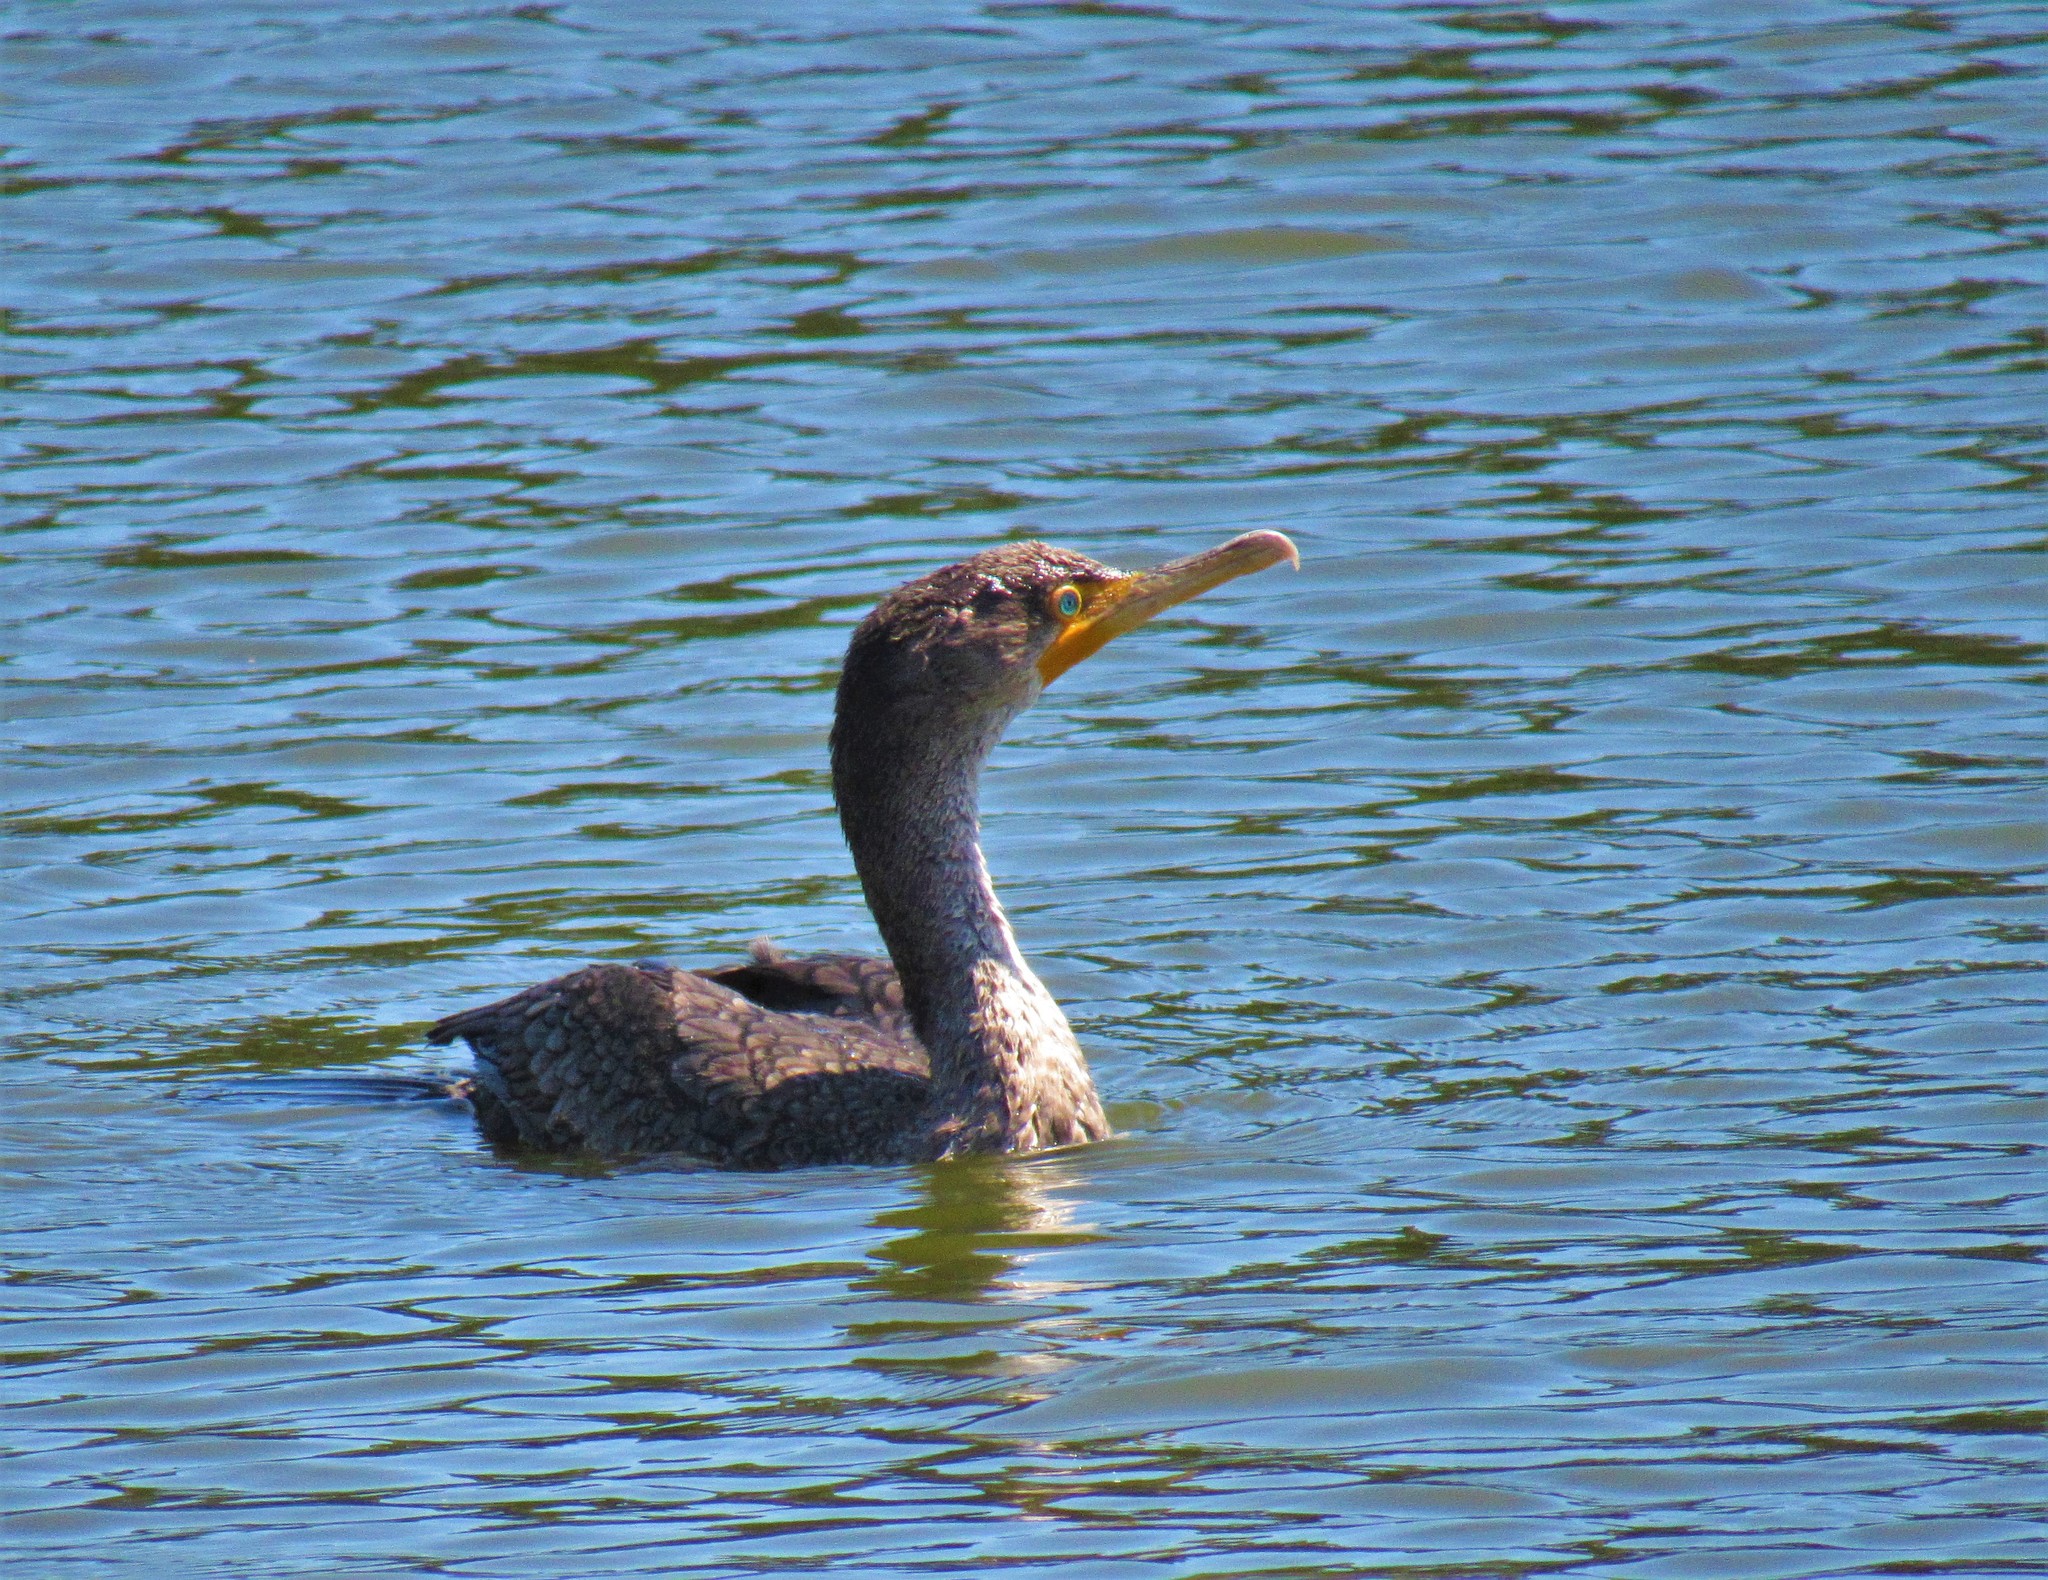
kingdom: Animalia
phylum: Chordata
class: Aves
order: Suliformes
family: Phalacrocoracidae
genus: Phalacrocorax
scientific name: Phalacrocorax auritus
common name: Double-crested cormorant
